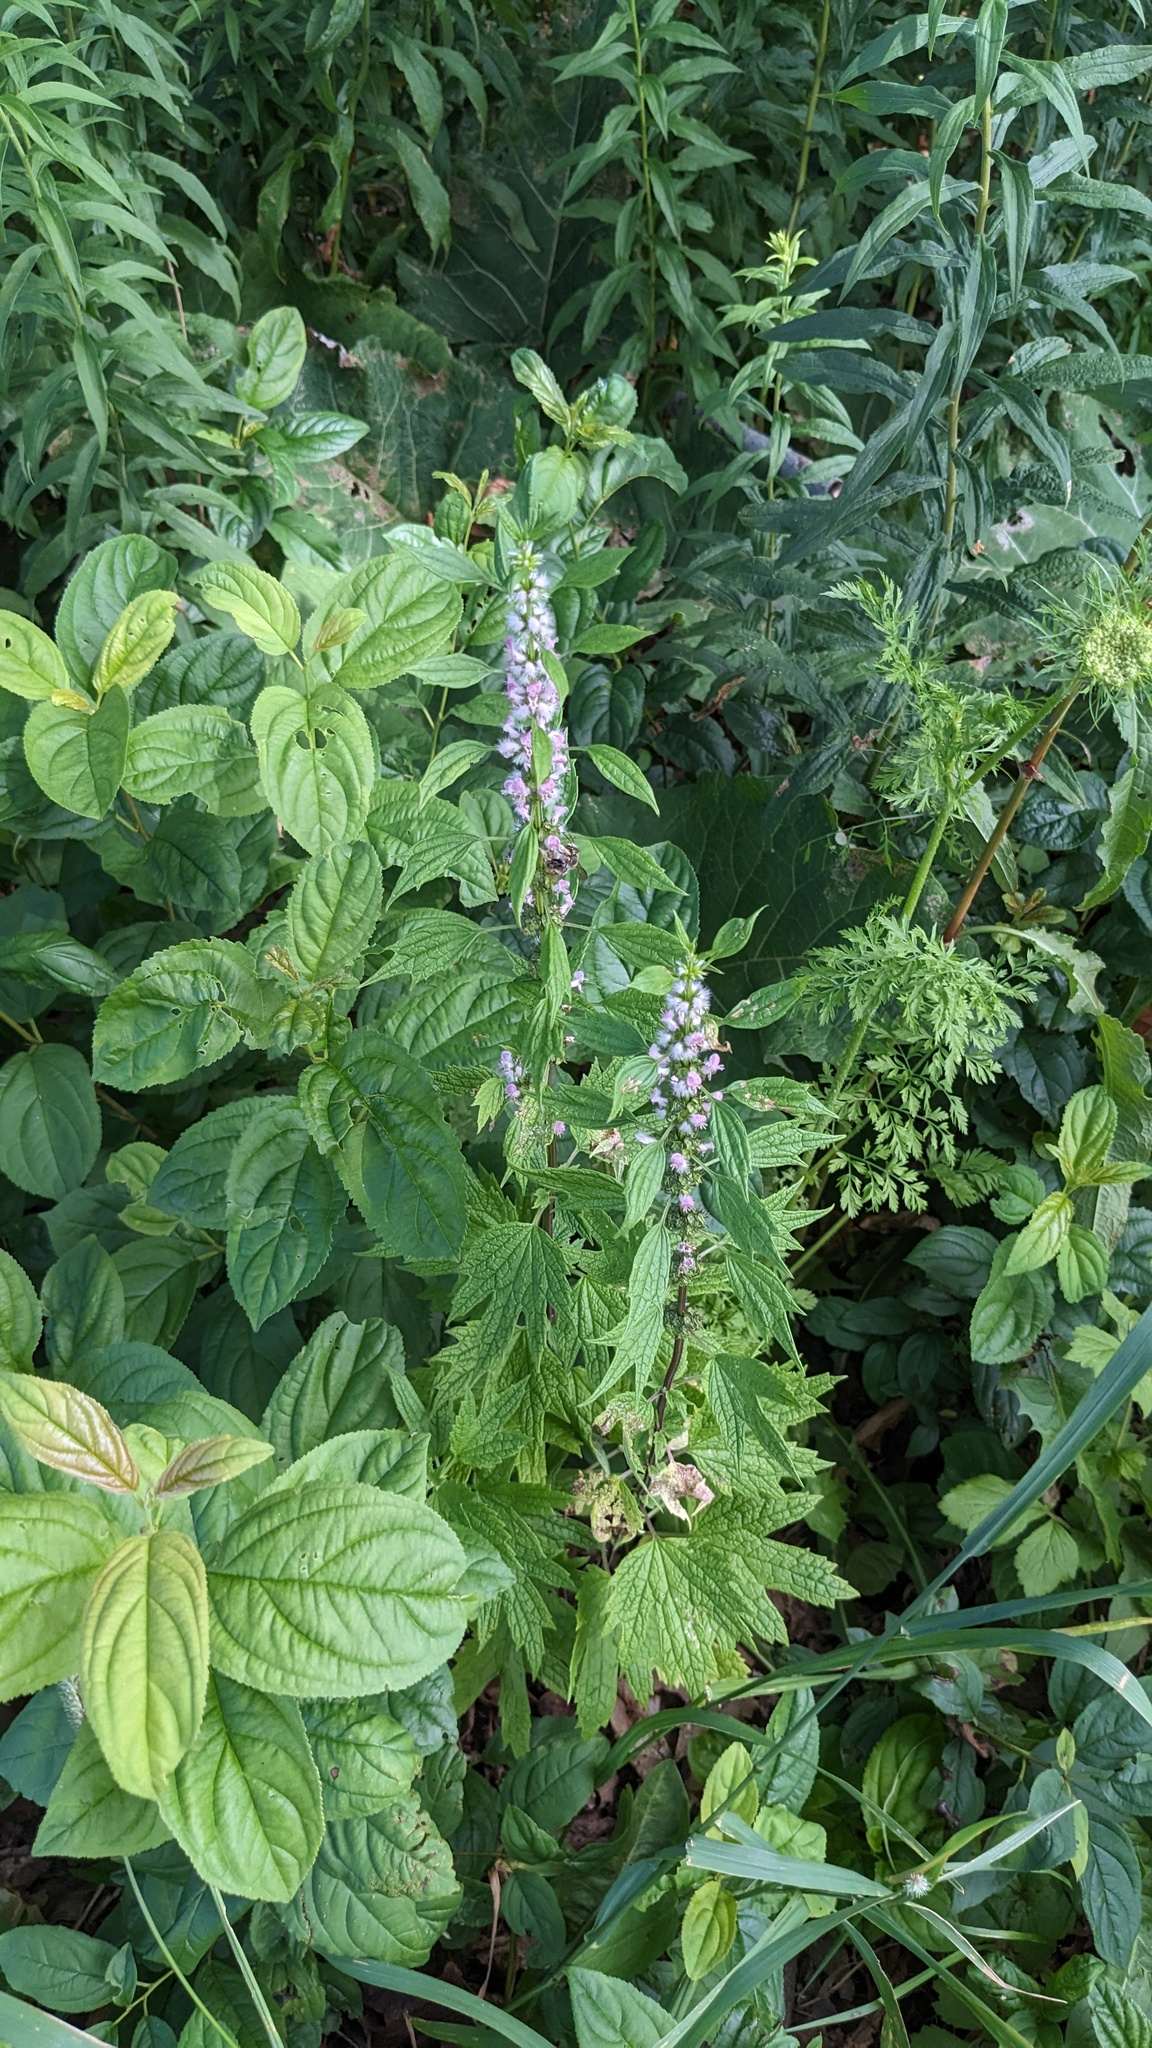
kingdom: Plantae
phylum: Tracheophyta
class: Magnoliopsida
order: Lamiales
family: Lamiaceae
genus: Leonurus
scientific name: Leonurus cardiaca
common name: Motherwort
